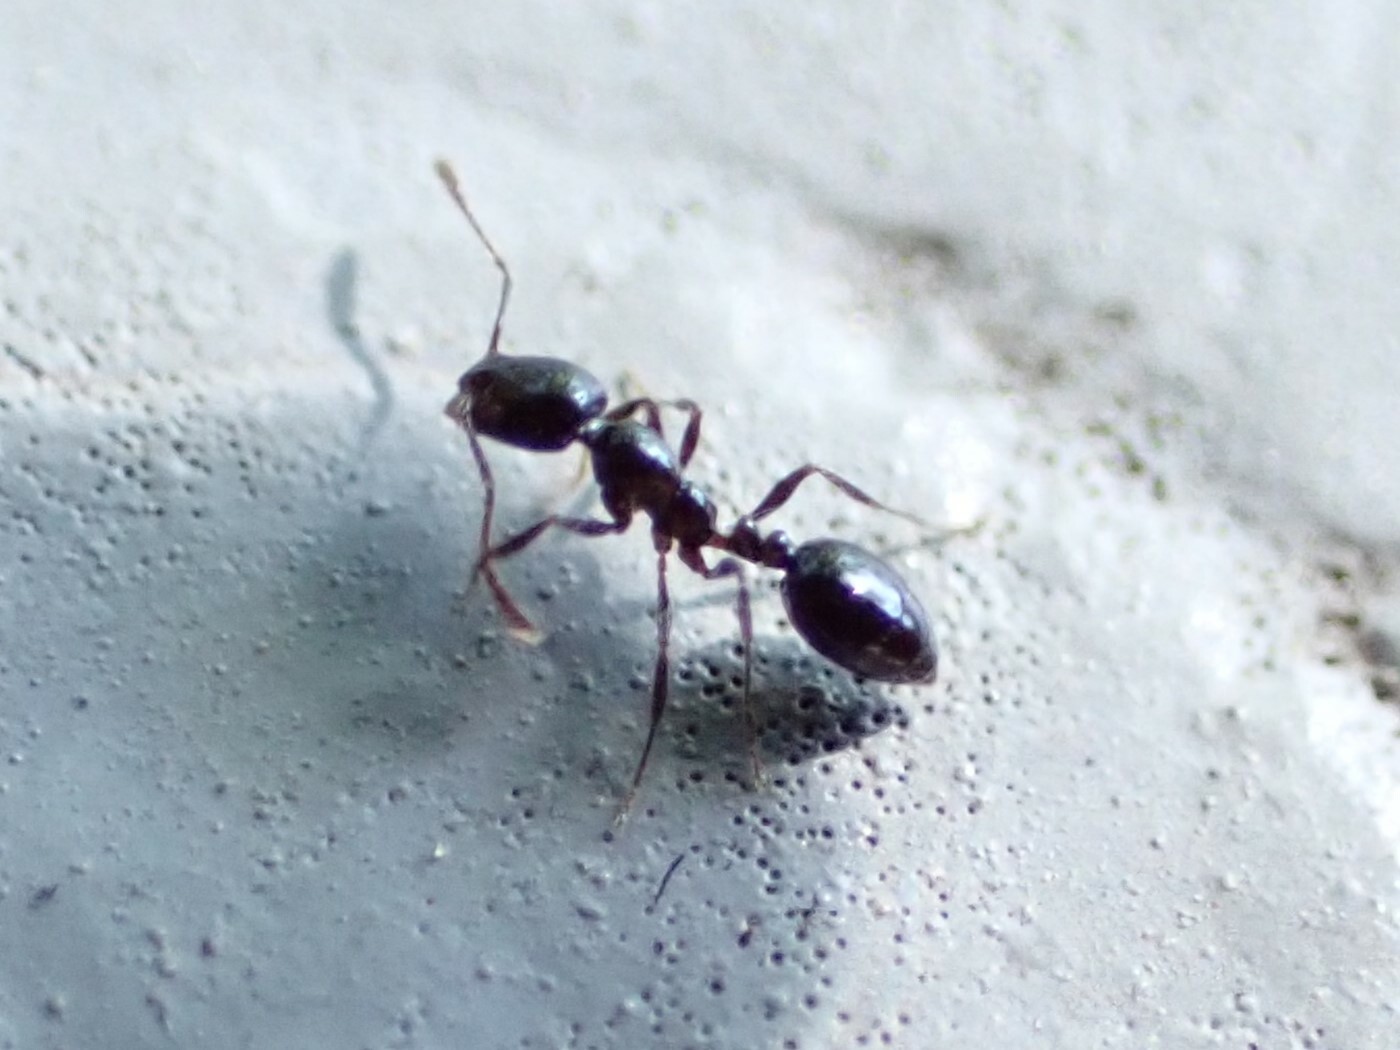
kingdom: Animalia
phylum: Arthropoda
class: Insecta
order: Hymenoptera
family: Formicidae
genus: Monomorium
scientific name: Monomorium minimum
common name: Little black ant
